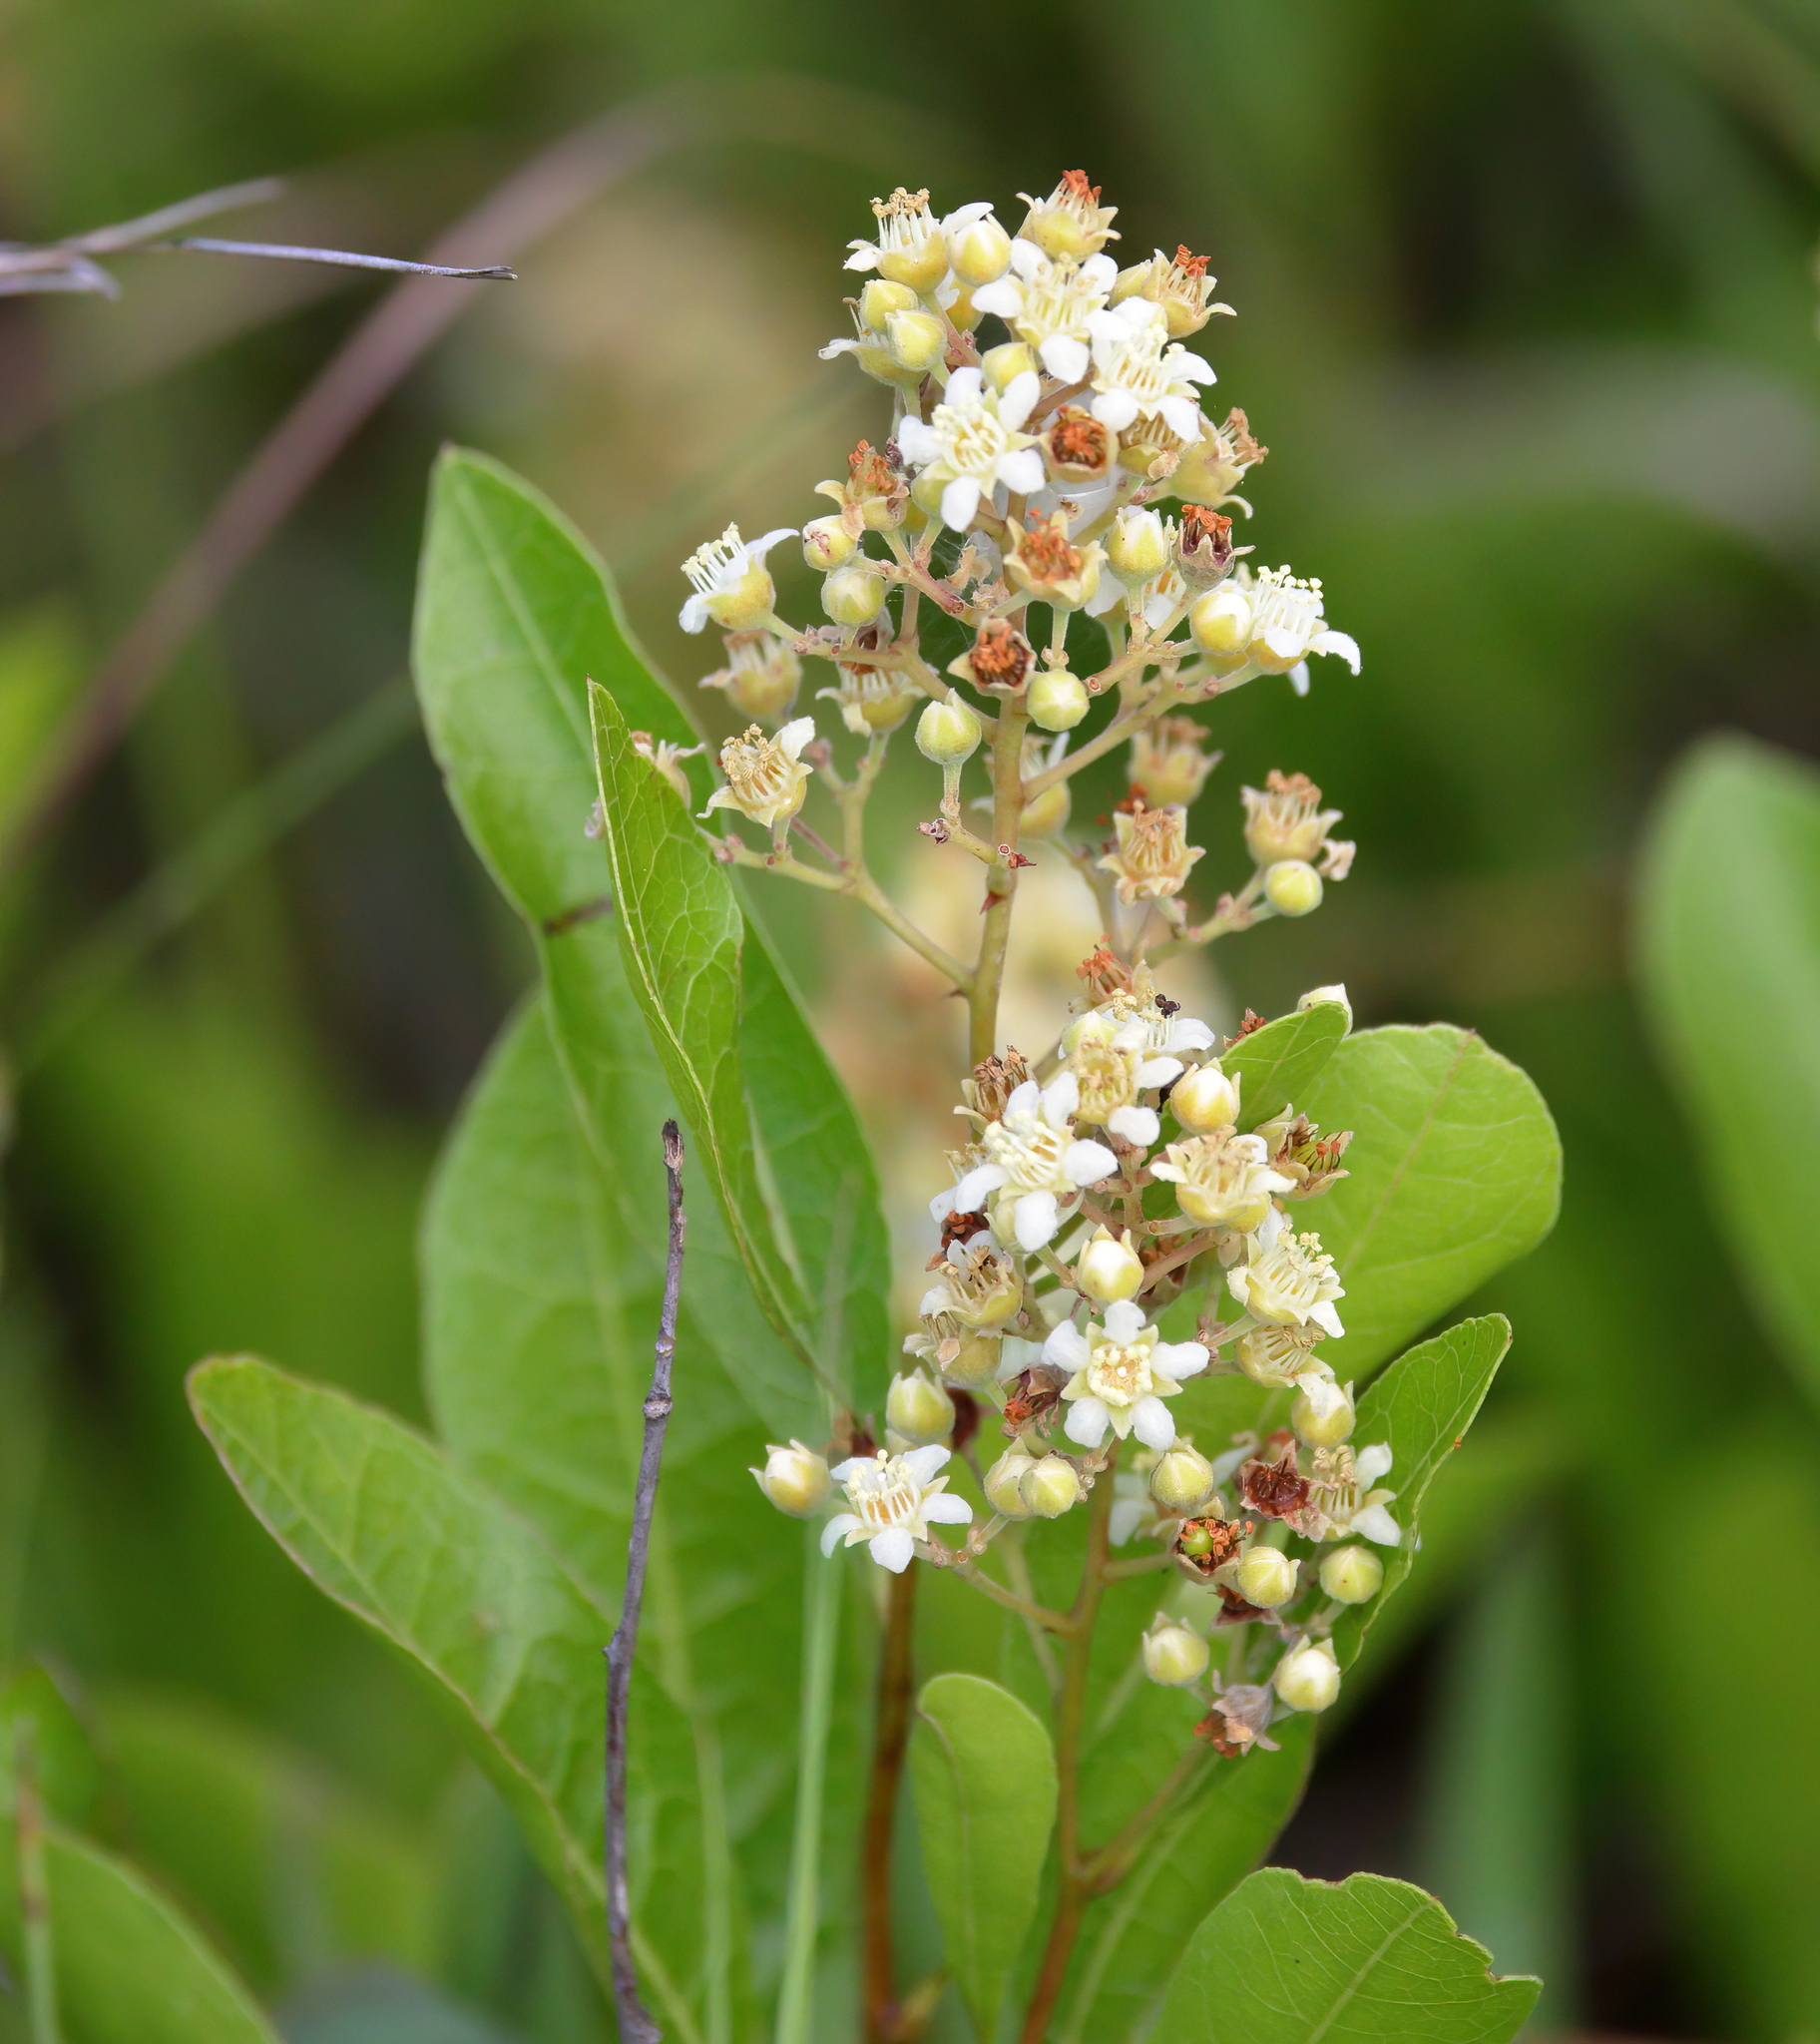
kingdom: Plantae
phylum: Tracheophyta
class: Magnoliopsida
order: Malpighiales
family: Chrysobalanaceae
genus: Geobalanus
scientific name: Geobalanus oblongifolius
